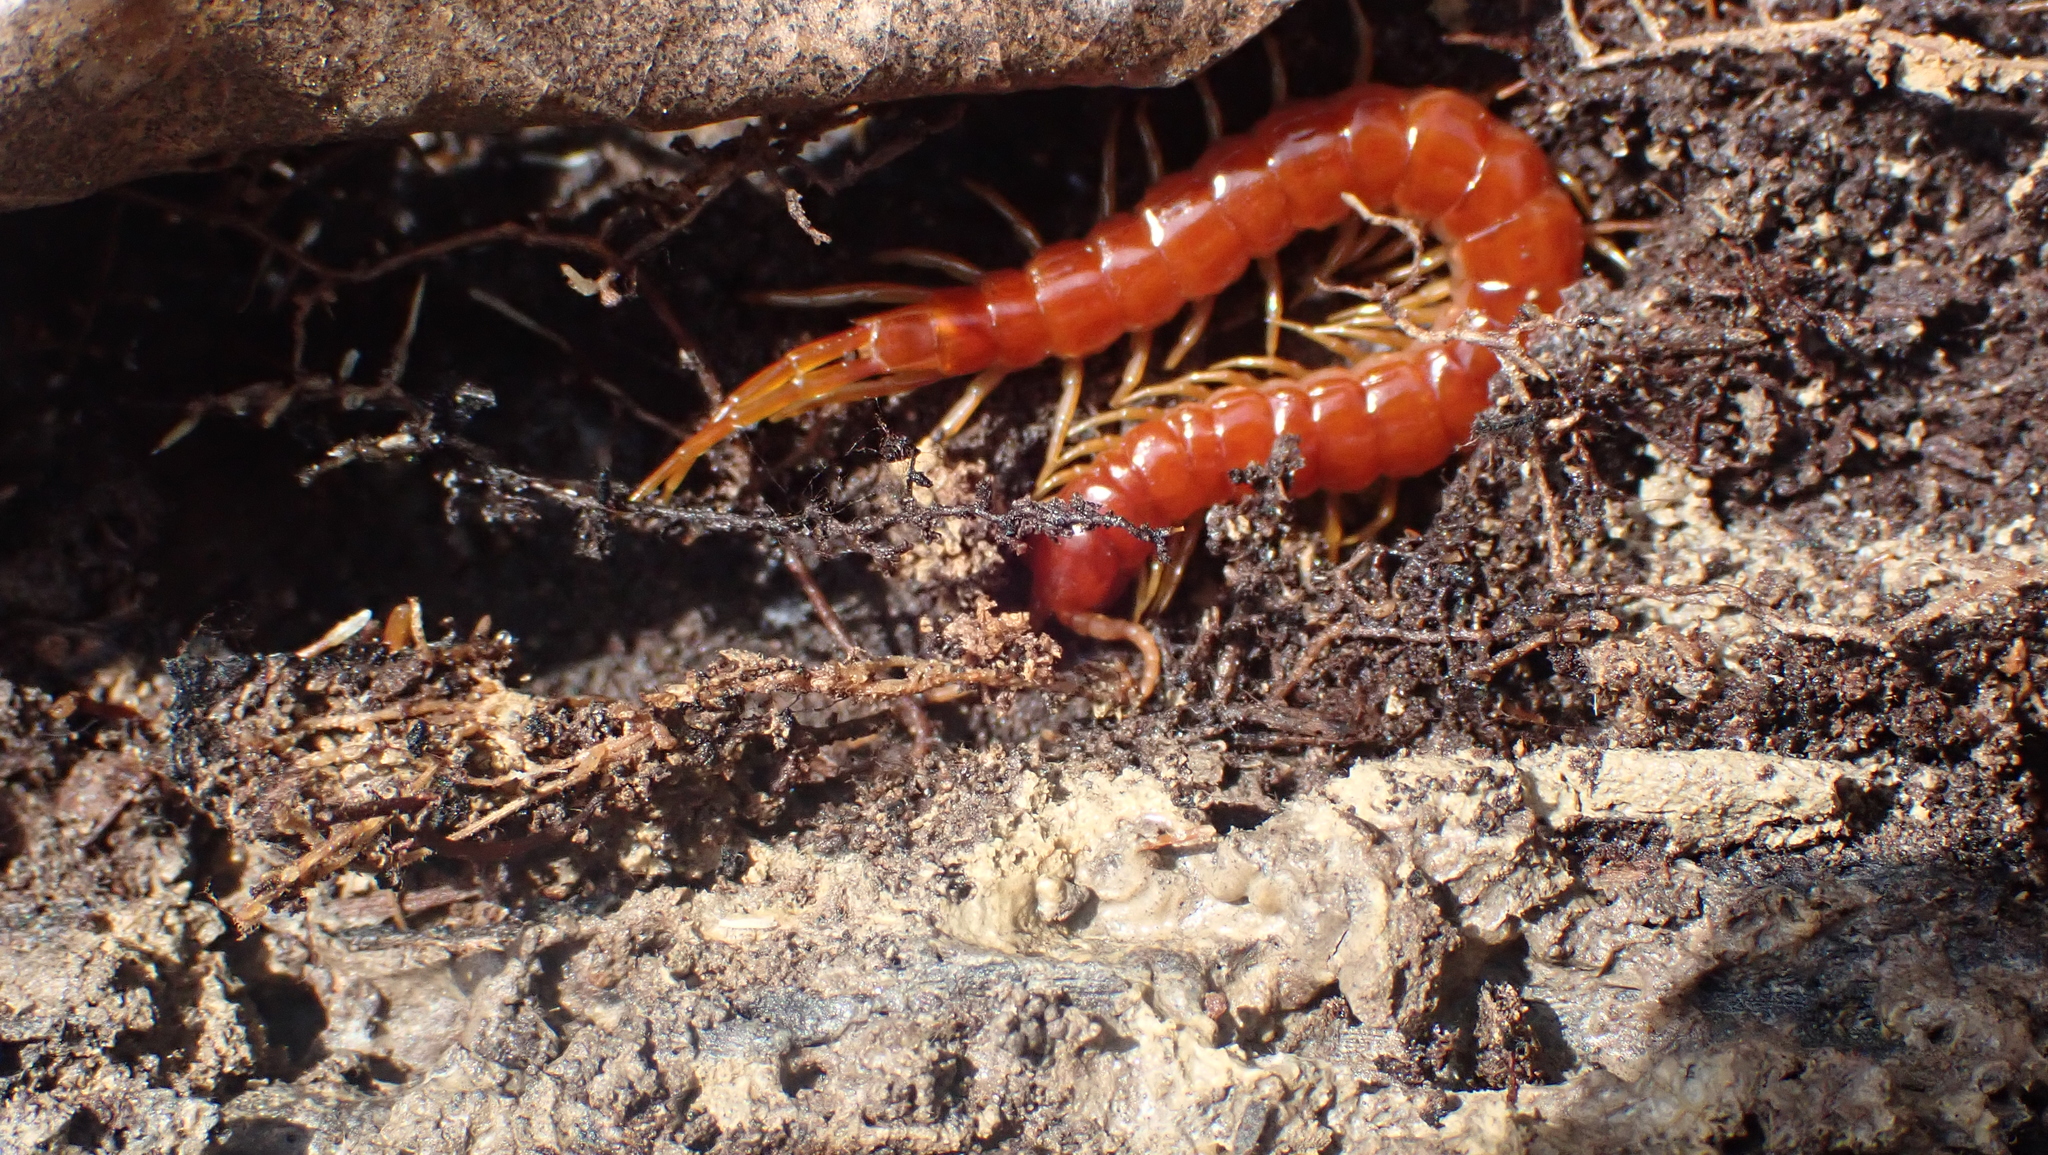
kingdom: Animalia
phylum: Arthropoda
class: Chilopoda
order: Scolopendromorpha
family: Scolopocryptopidae
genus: Scolopocryptops
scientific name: Scolopocryptops sexspinosus
